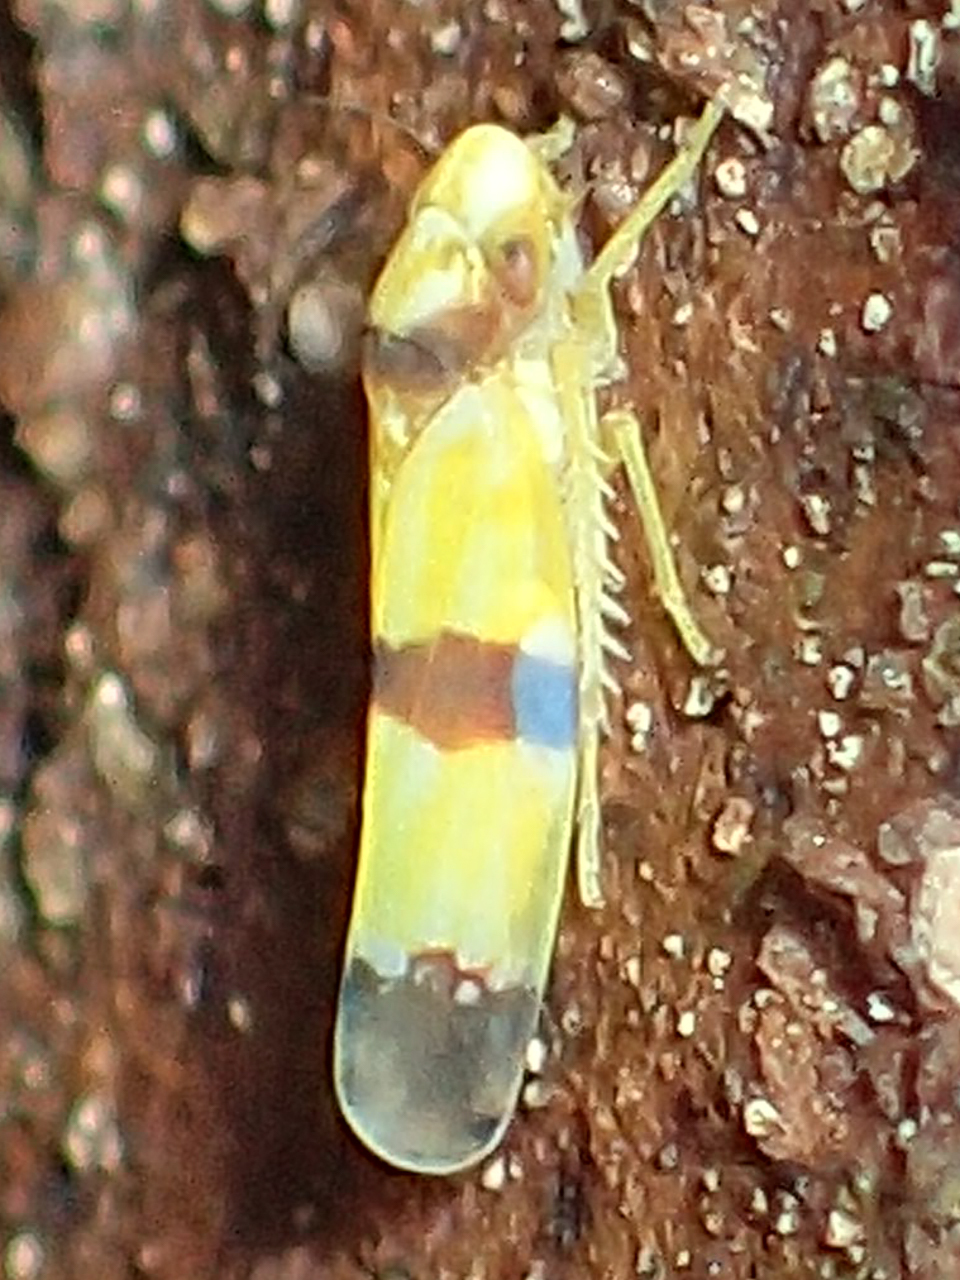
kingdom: Animalia
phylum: Arthropoda
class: Insecta
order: Hemiptera
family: Cicadellidae
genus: Erythroneura
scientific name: Erythroneura calycula
